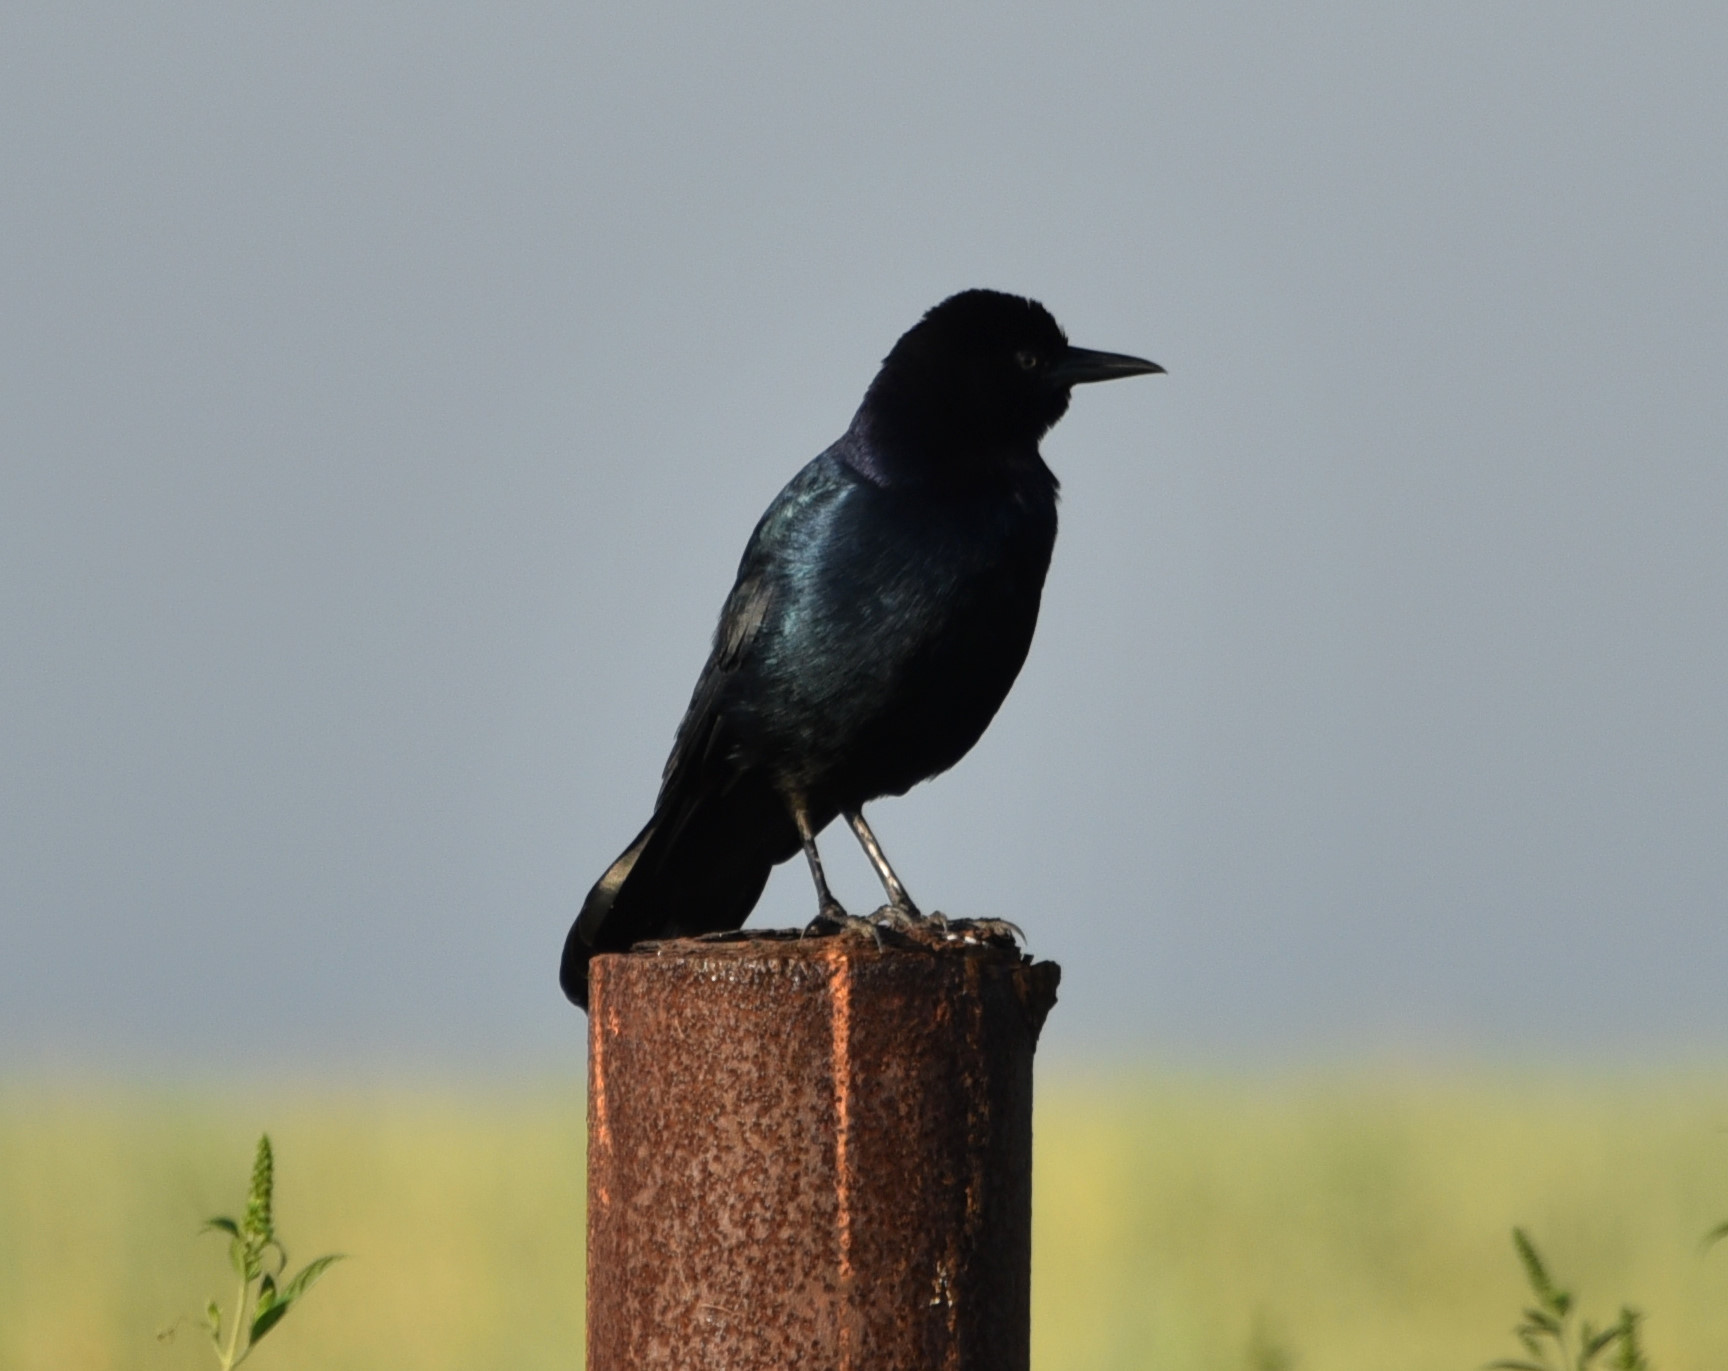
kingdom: Animalia
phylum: Chordata
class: Aves
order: Passeriformes
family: Icteridae
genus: Quiscalus
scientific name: Quiscalus major
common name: Boat-tailed grackle
